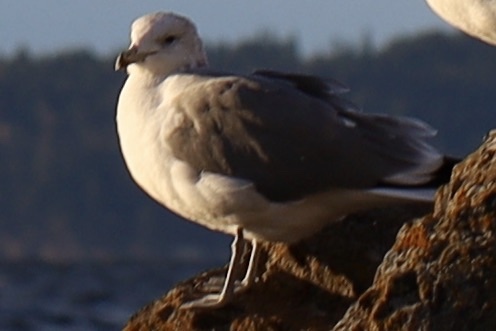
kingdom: Animalia
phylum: Chordata
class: Aves
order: Charadriiformes
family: Laridae
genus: Larus
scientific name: Larus californicus
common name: California gull
